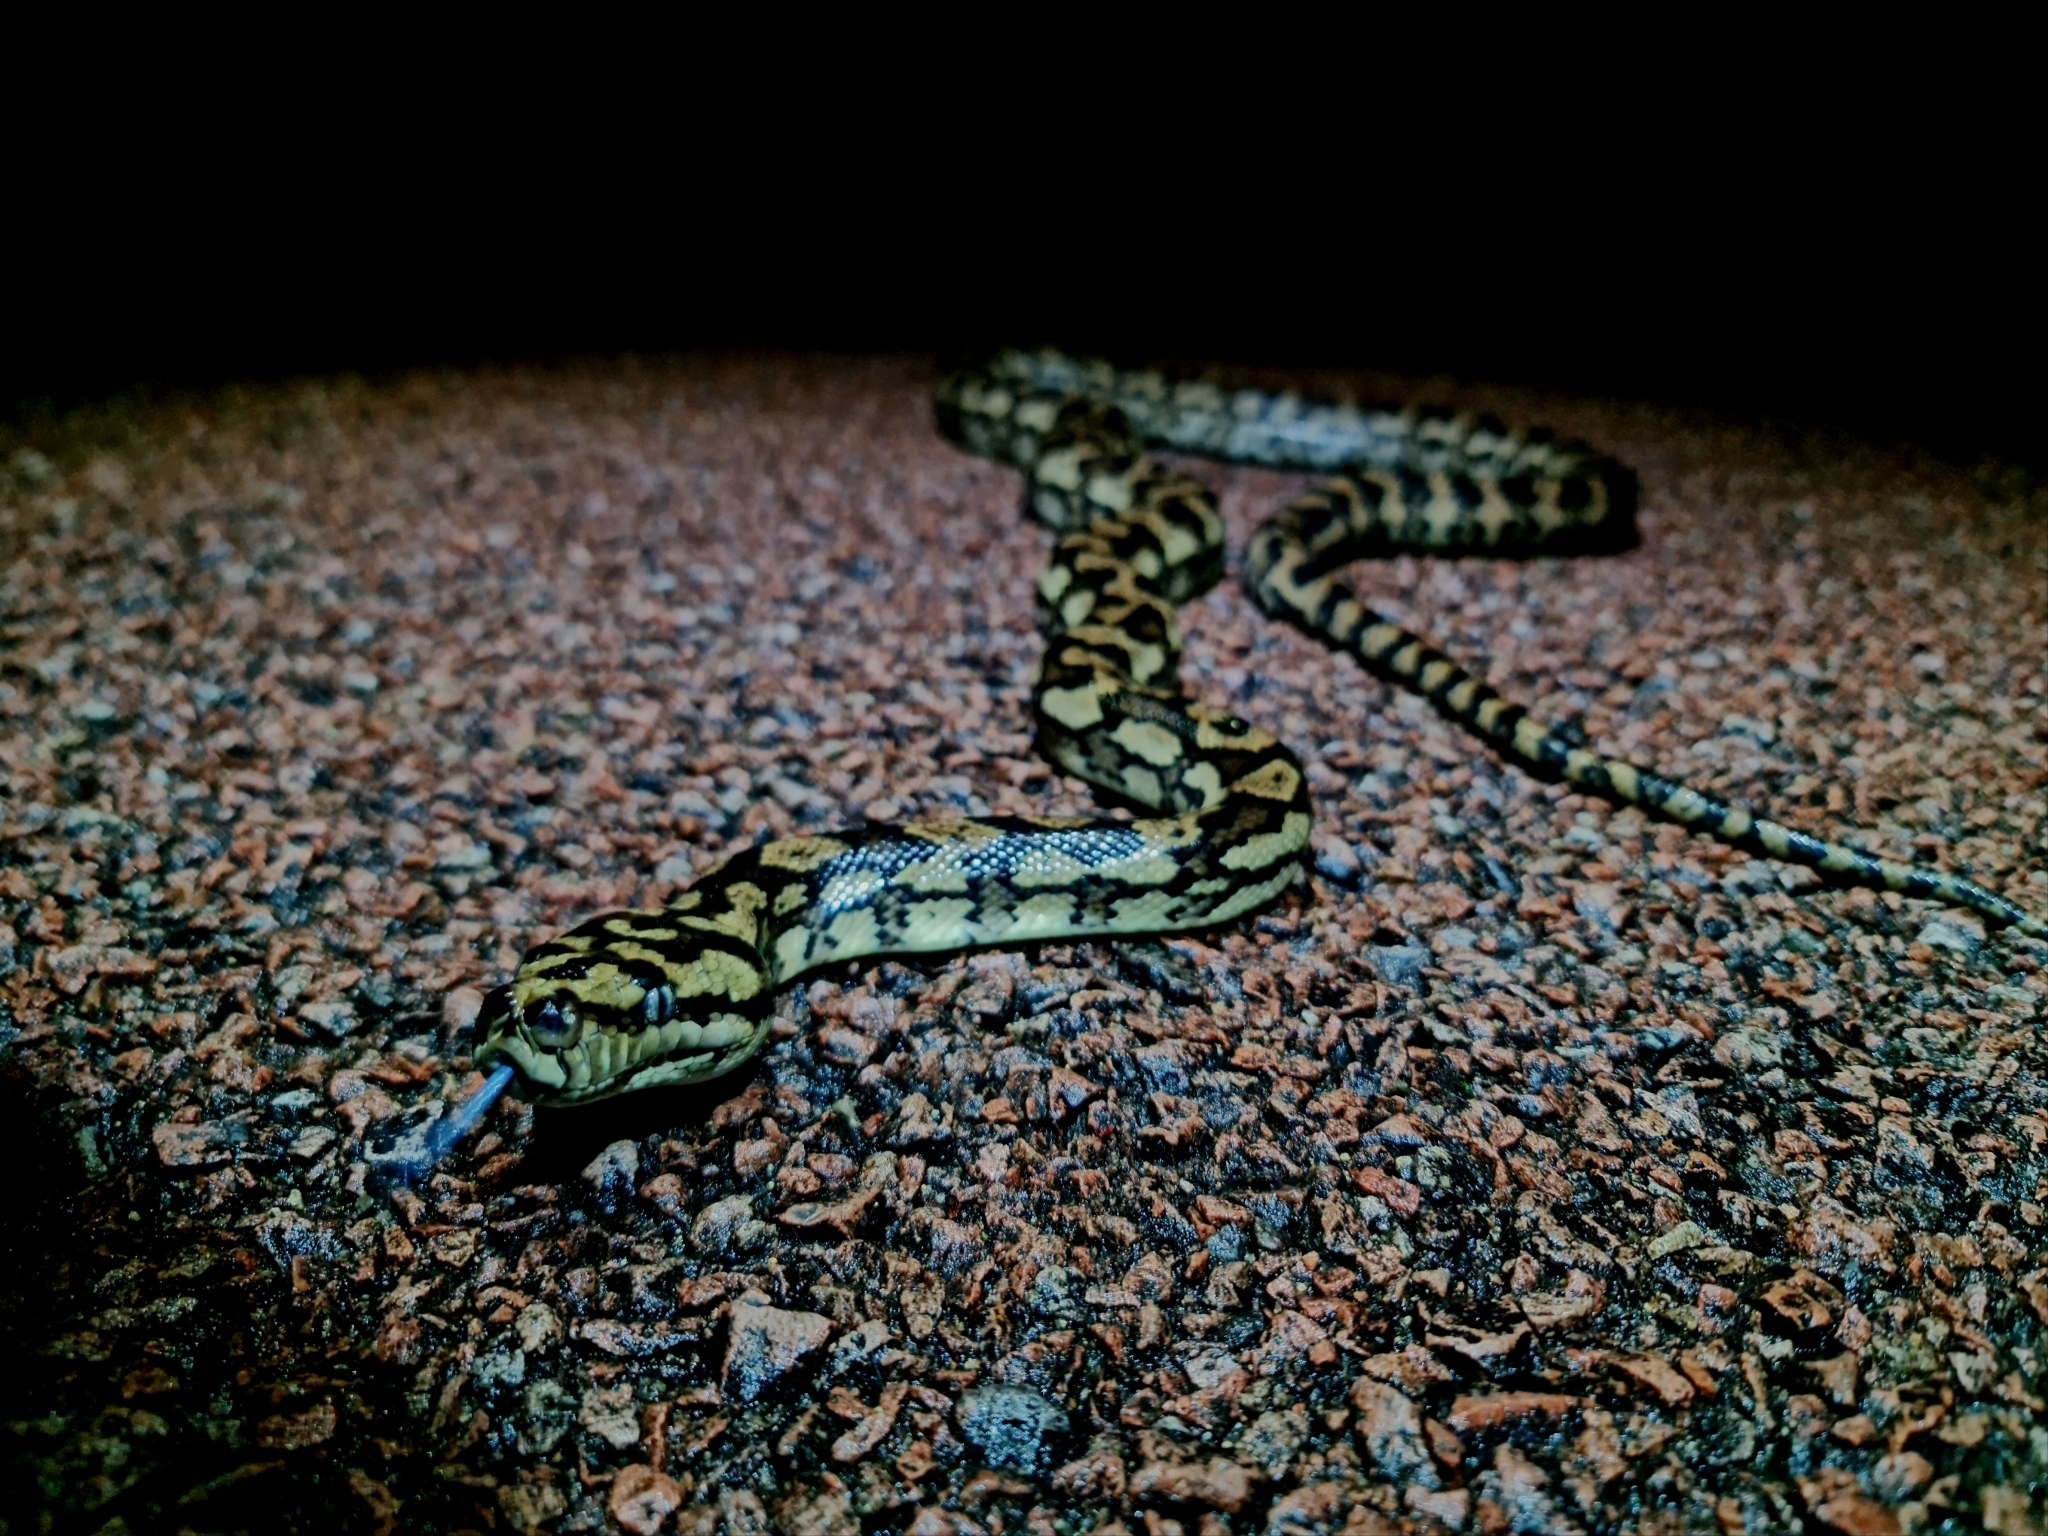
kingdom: Animalia
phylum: Chordata
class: Squamata
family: Pythonidae
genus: Morelia
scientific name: Morelia spilota
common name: Carpet python
